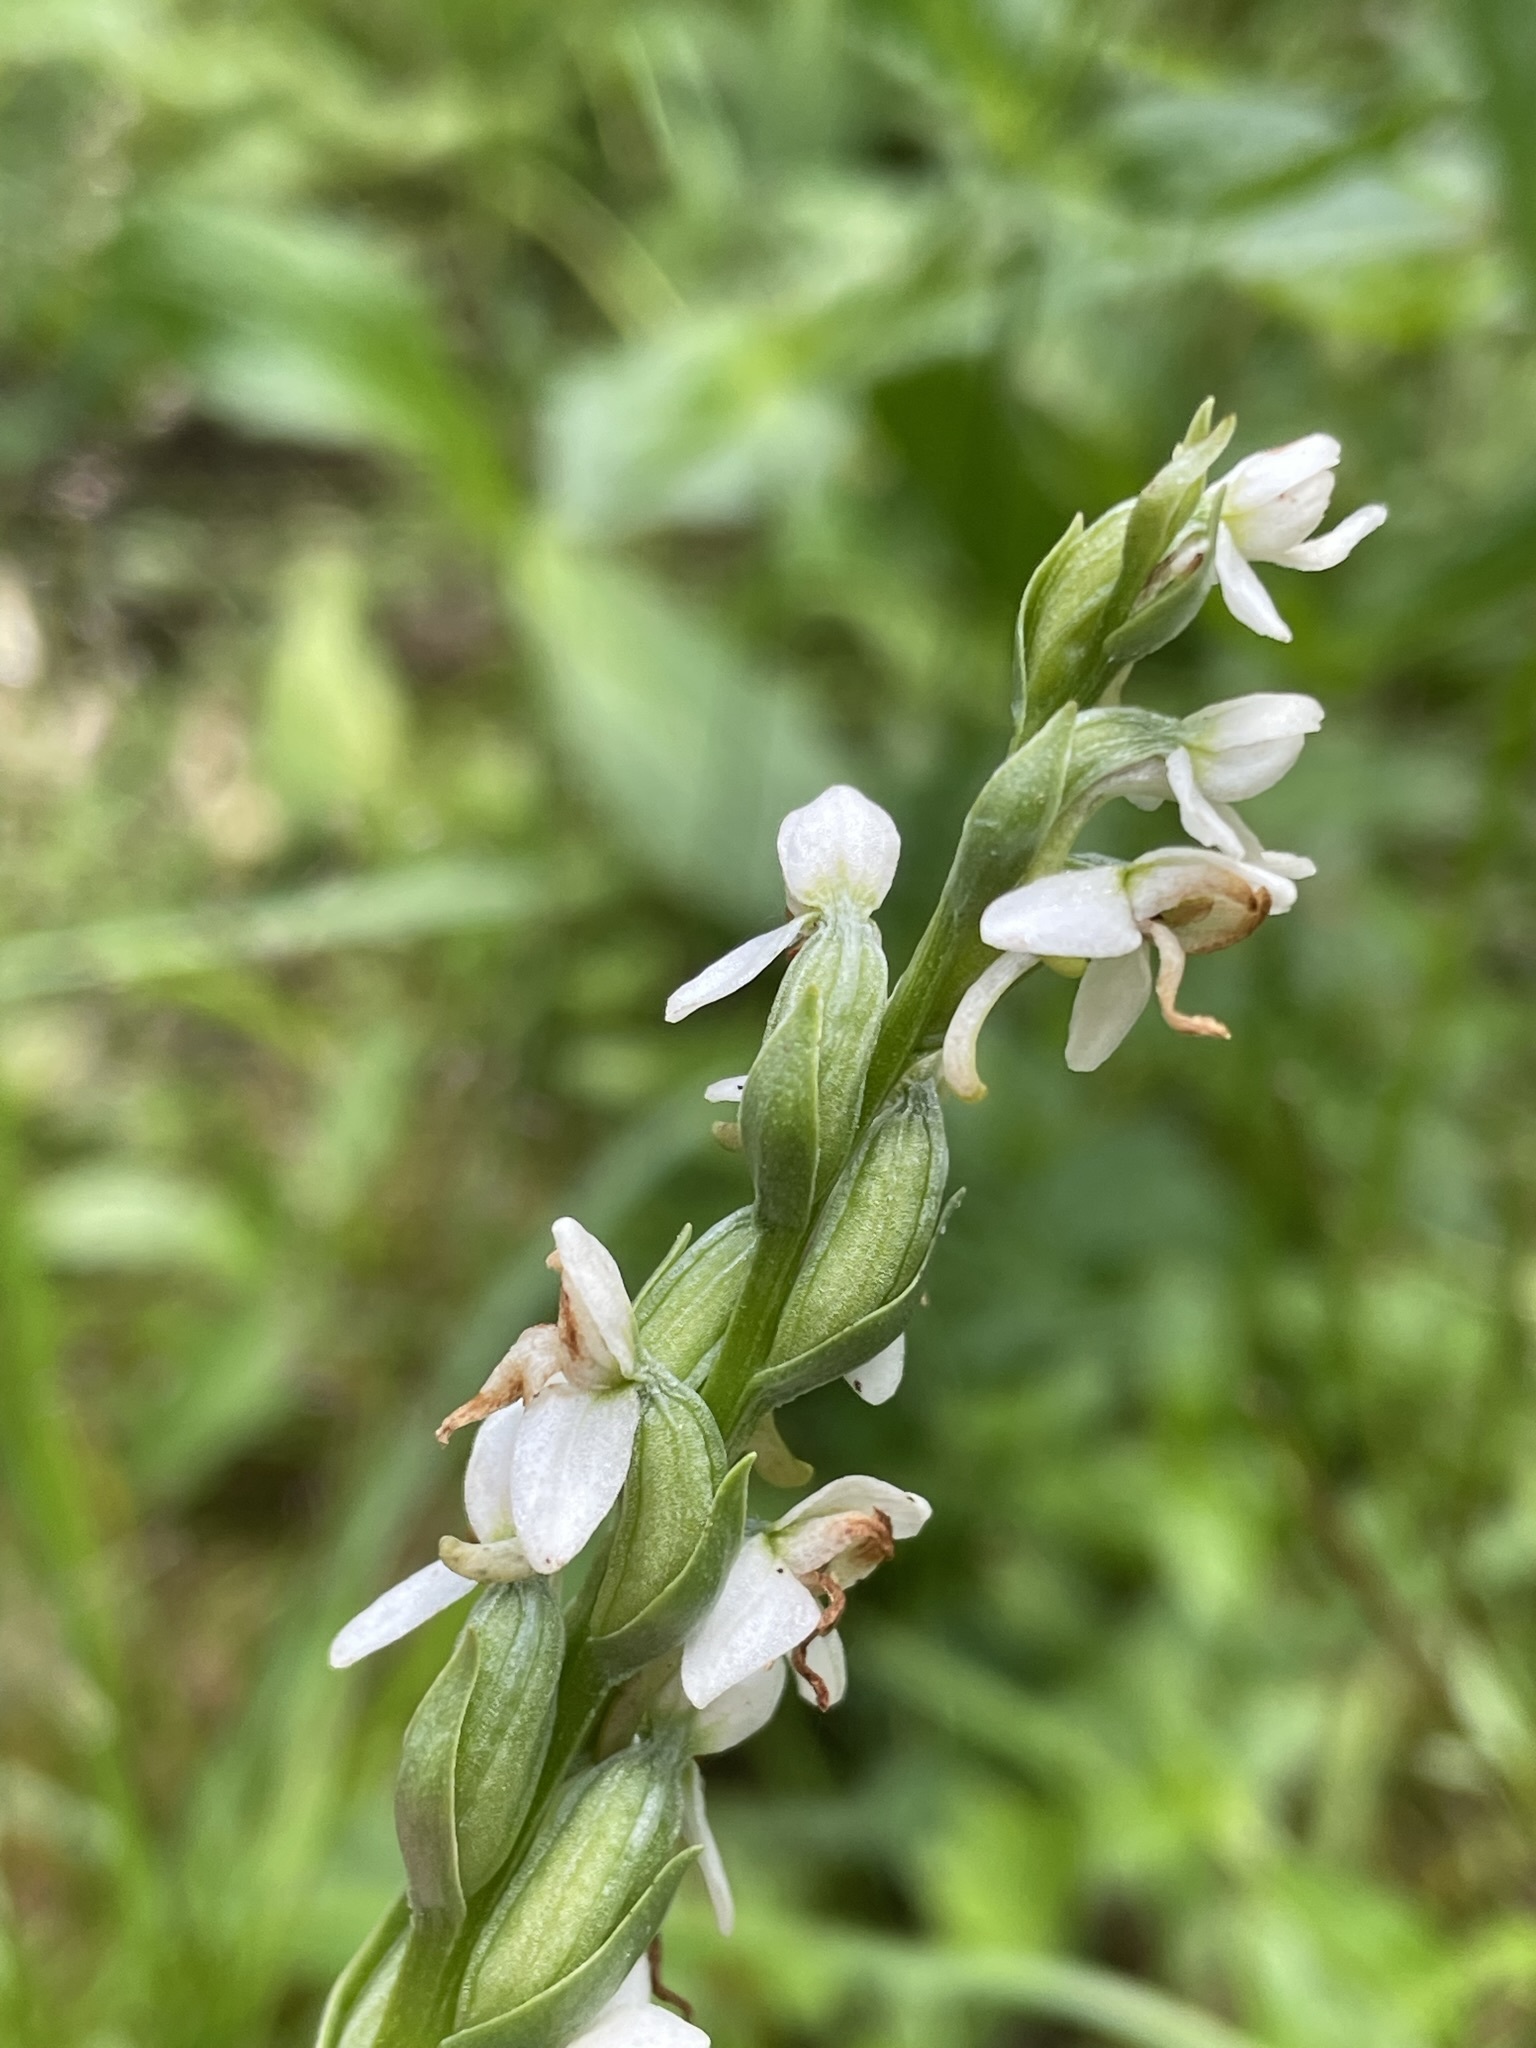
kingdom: Plantae
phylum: Tracheophyta
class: Liliopsida
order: Asparagales
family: Orchidaceae
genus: Platanthera
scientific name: Platanthera dilatata
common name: Bog candles
